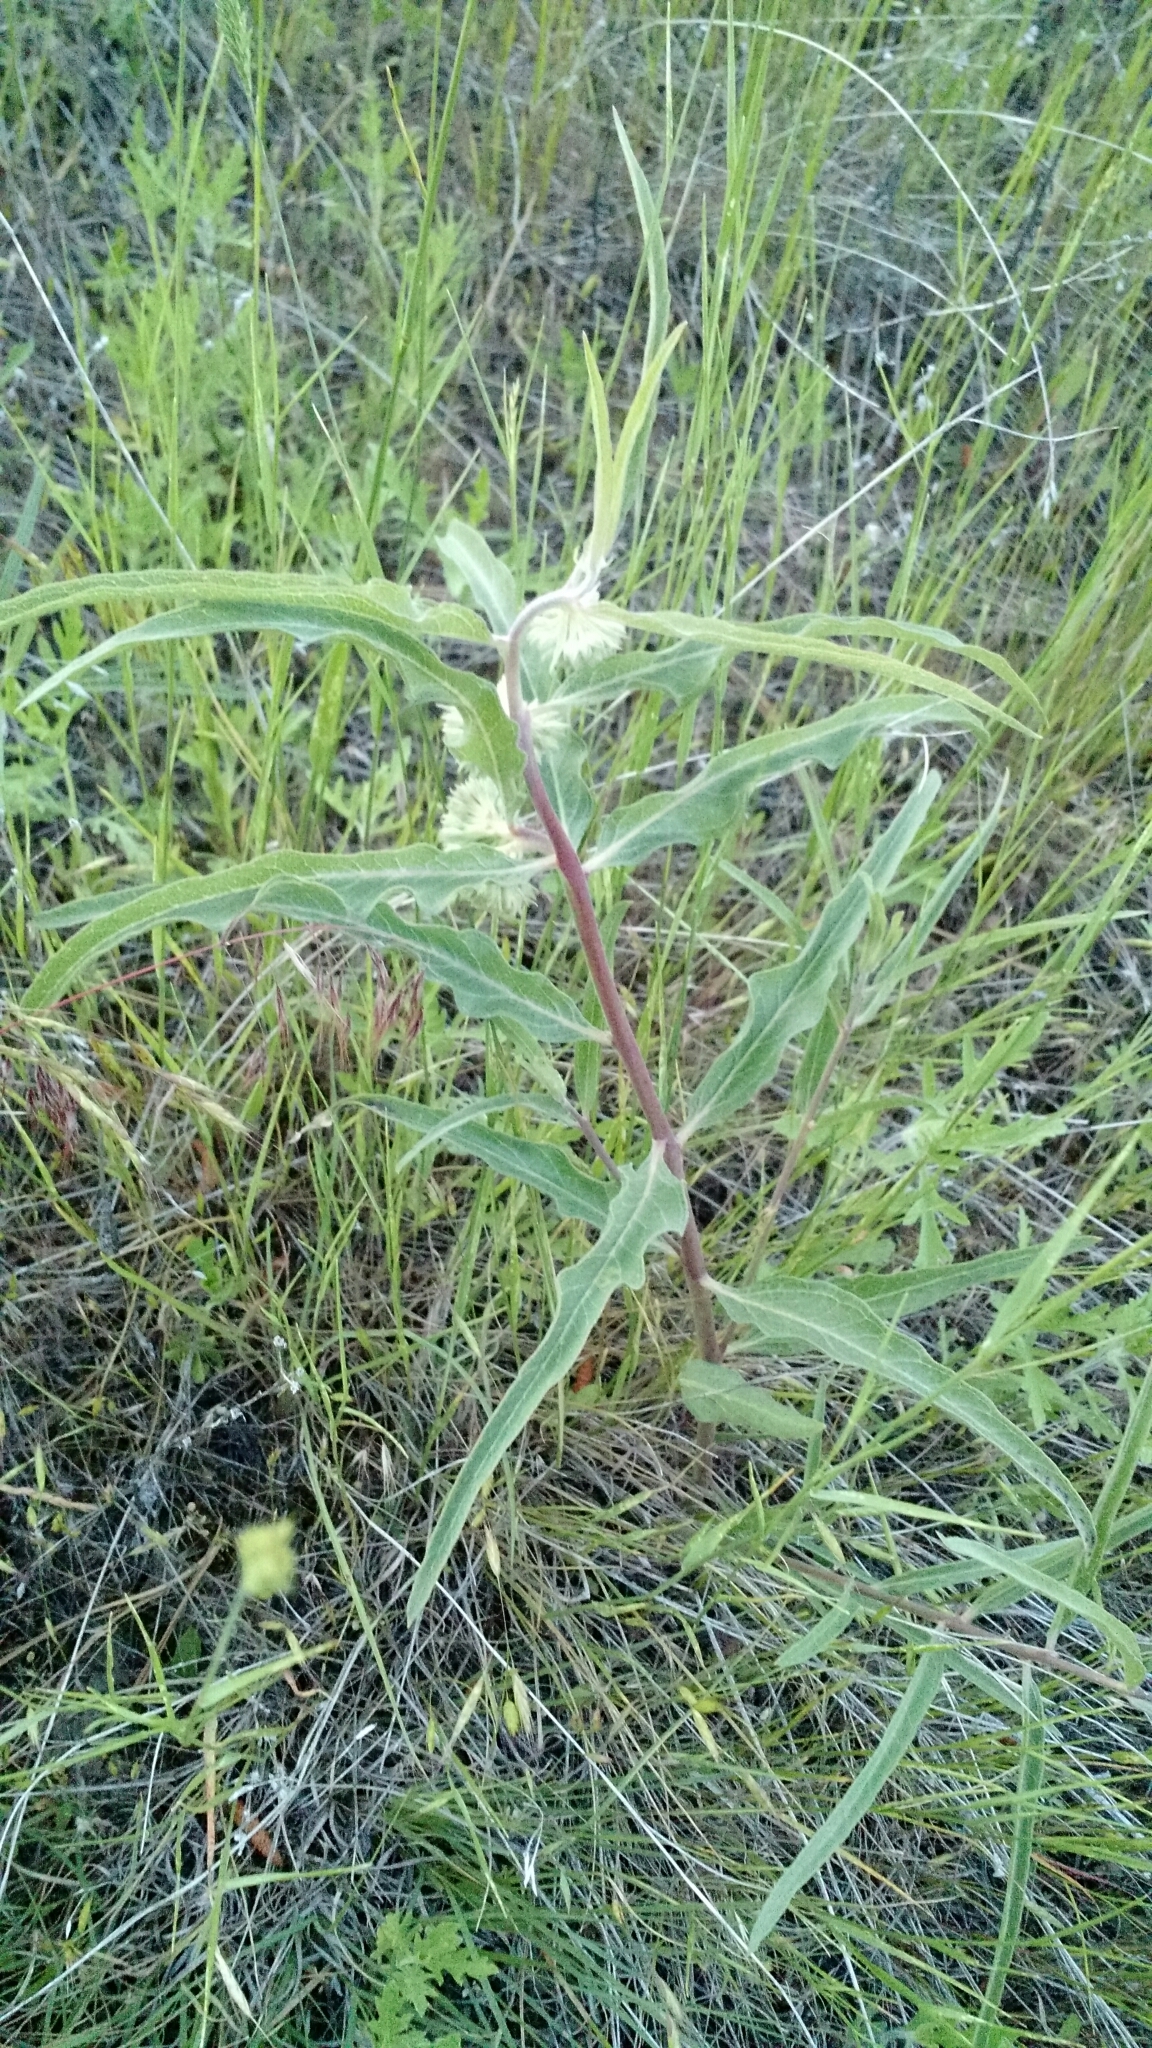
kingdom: Plantae
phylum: Tracheophyta
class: Magnoliopsida
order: Gentianales
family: Apocynaceae
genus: Asclepias
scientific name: Asclepias viridiflora
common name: Green comet milkweed
